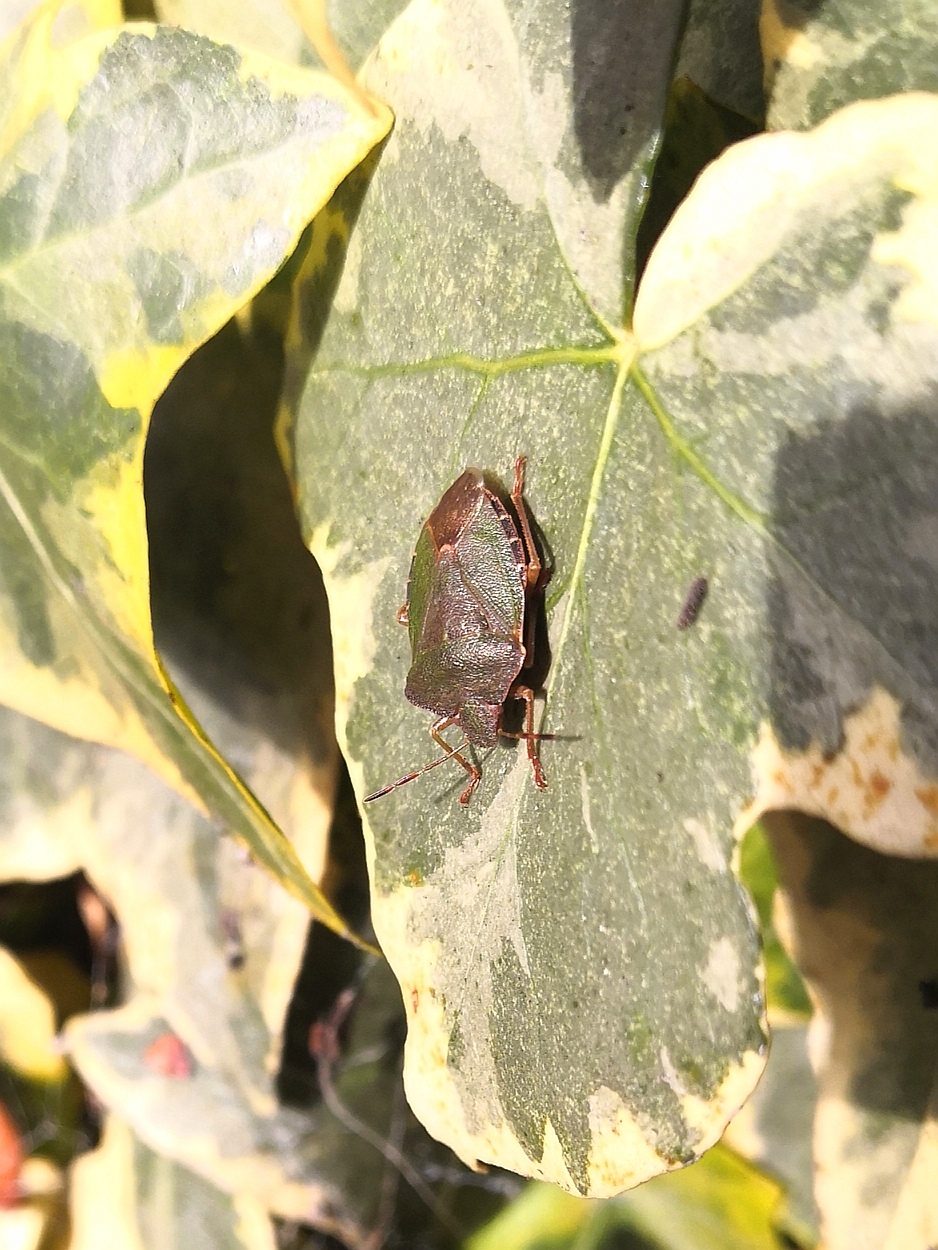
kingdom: Animalia
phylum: Arthropoda
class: Insecta
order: Hemiptera
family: Pentatomidae
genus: Palomena
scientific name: Palomena prasina
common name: Green shieldbug
